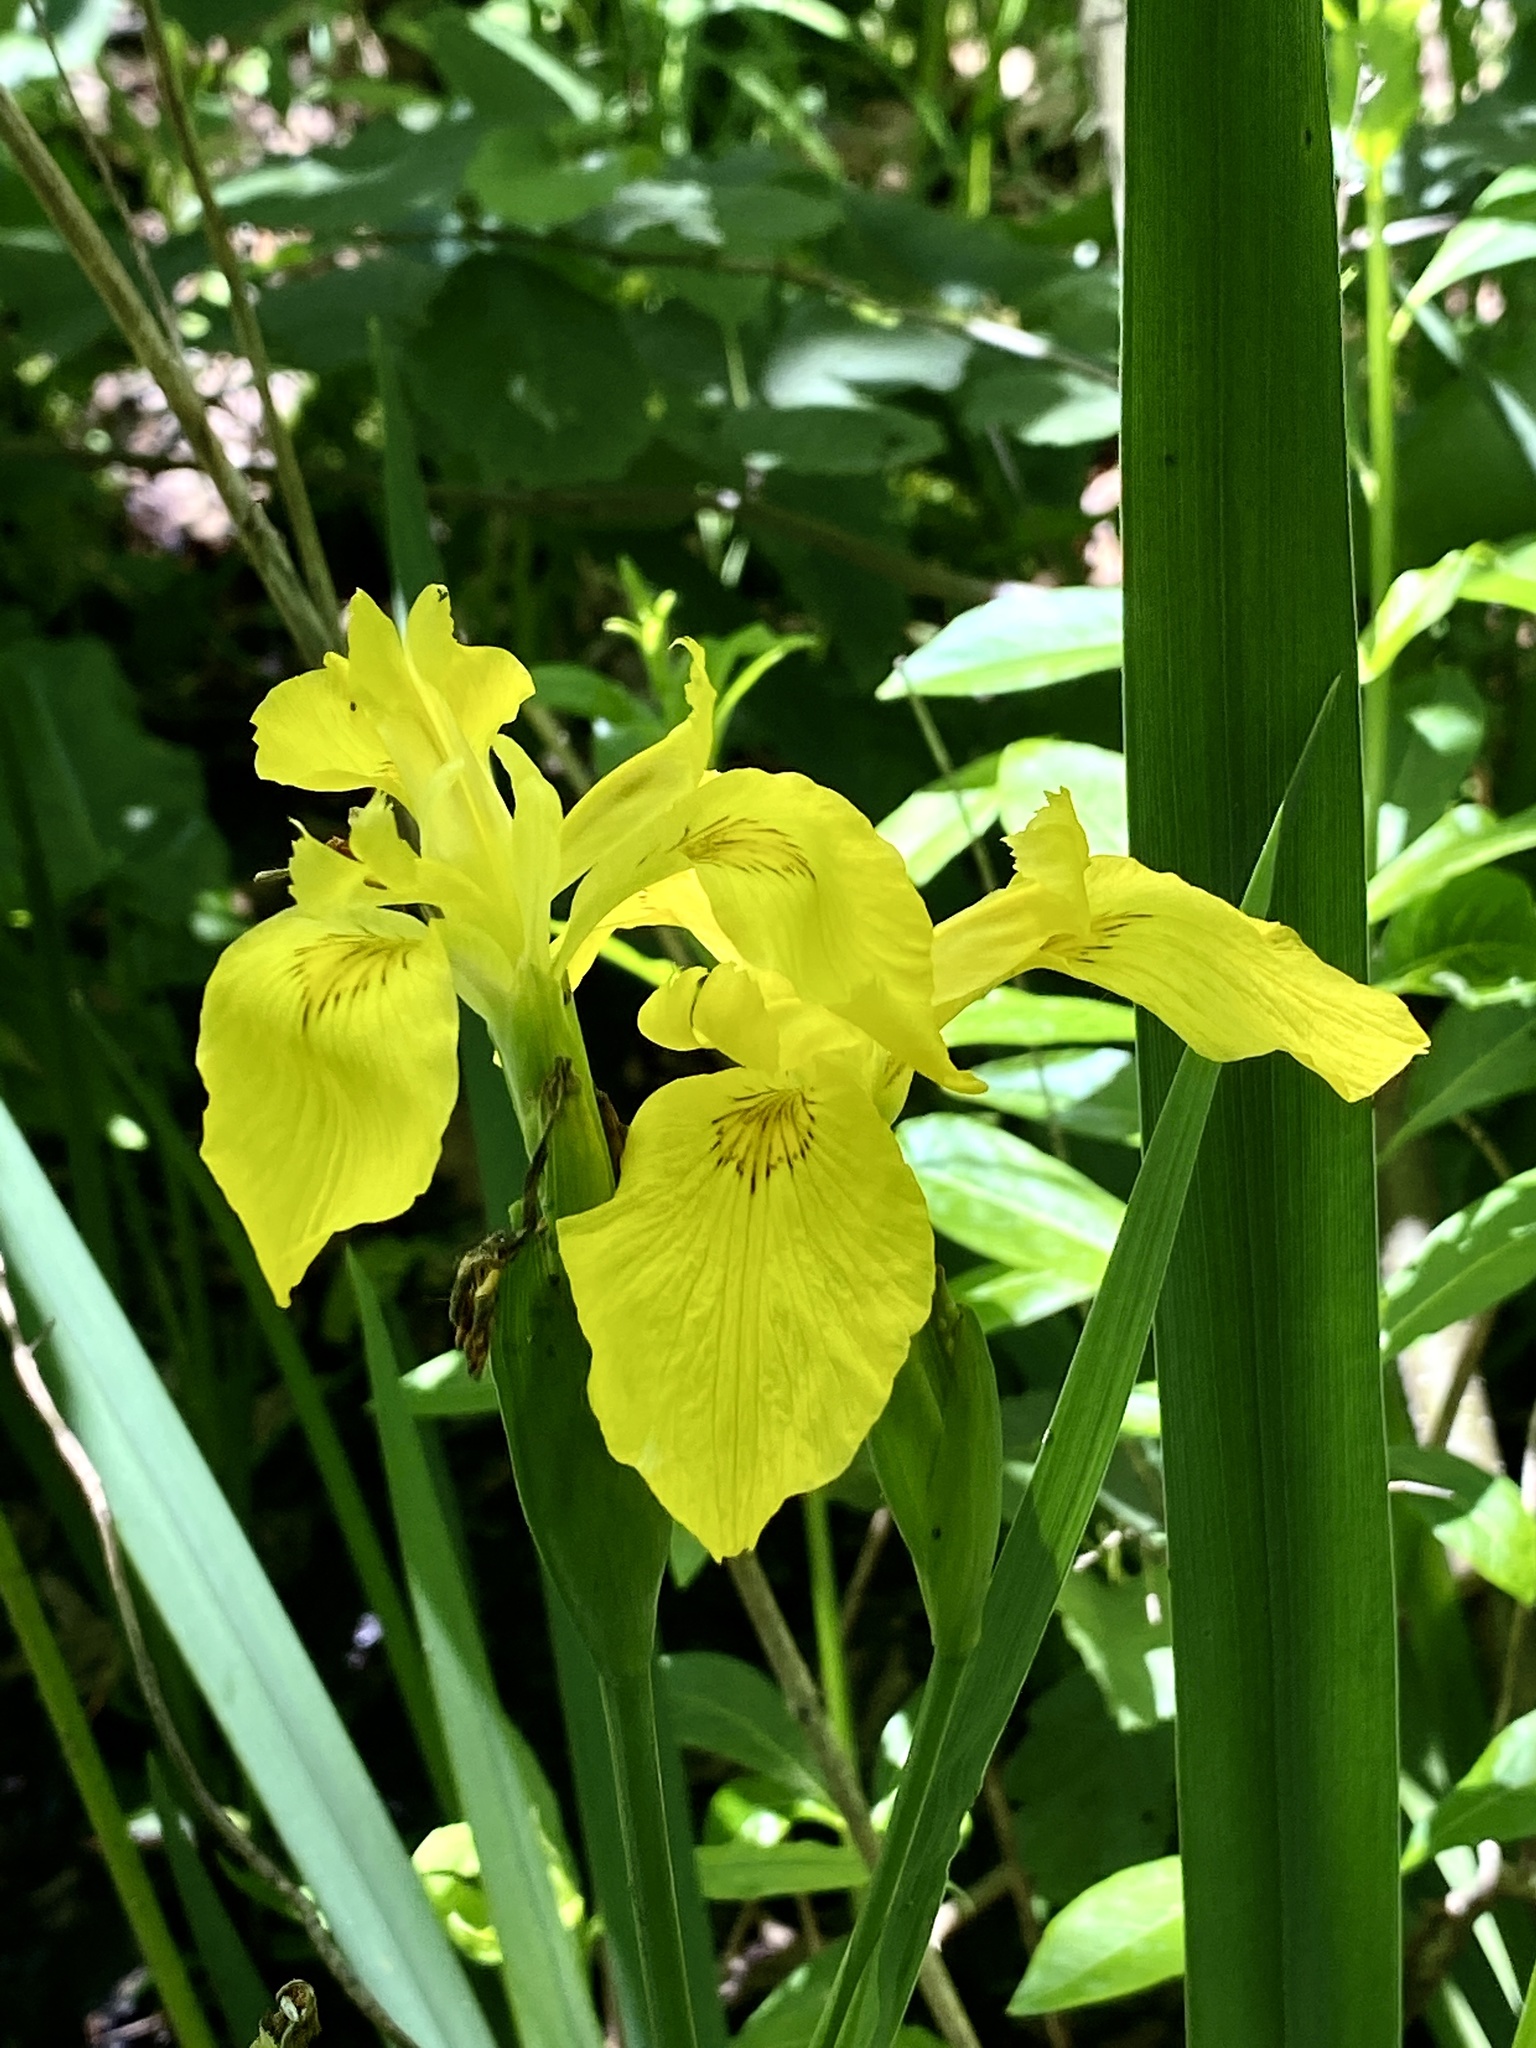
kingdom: Plantae
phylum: Tracheophyta
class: Liliopsida
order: Asparagales
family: Iridaceae
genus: Iris
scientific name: Iris pseudacorus
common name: Yellow flag
